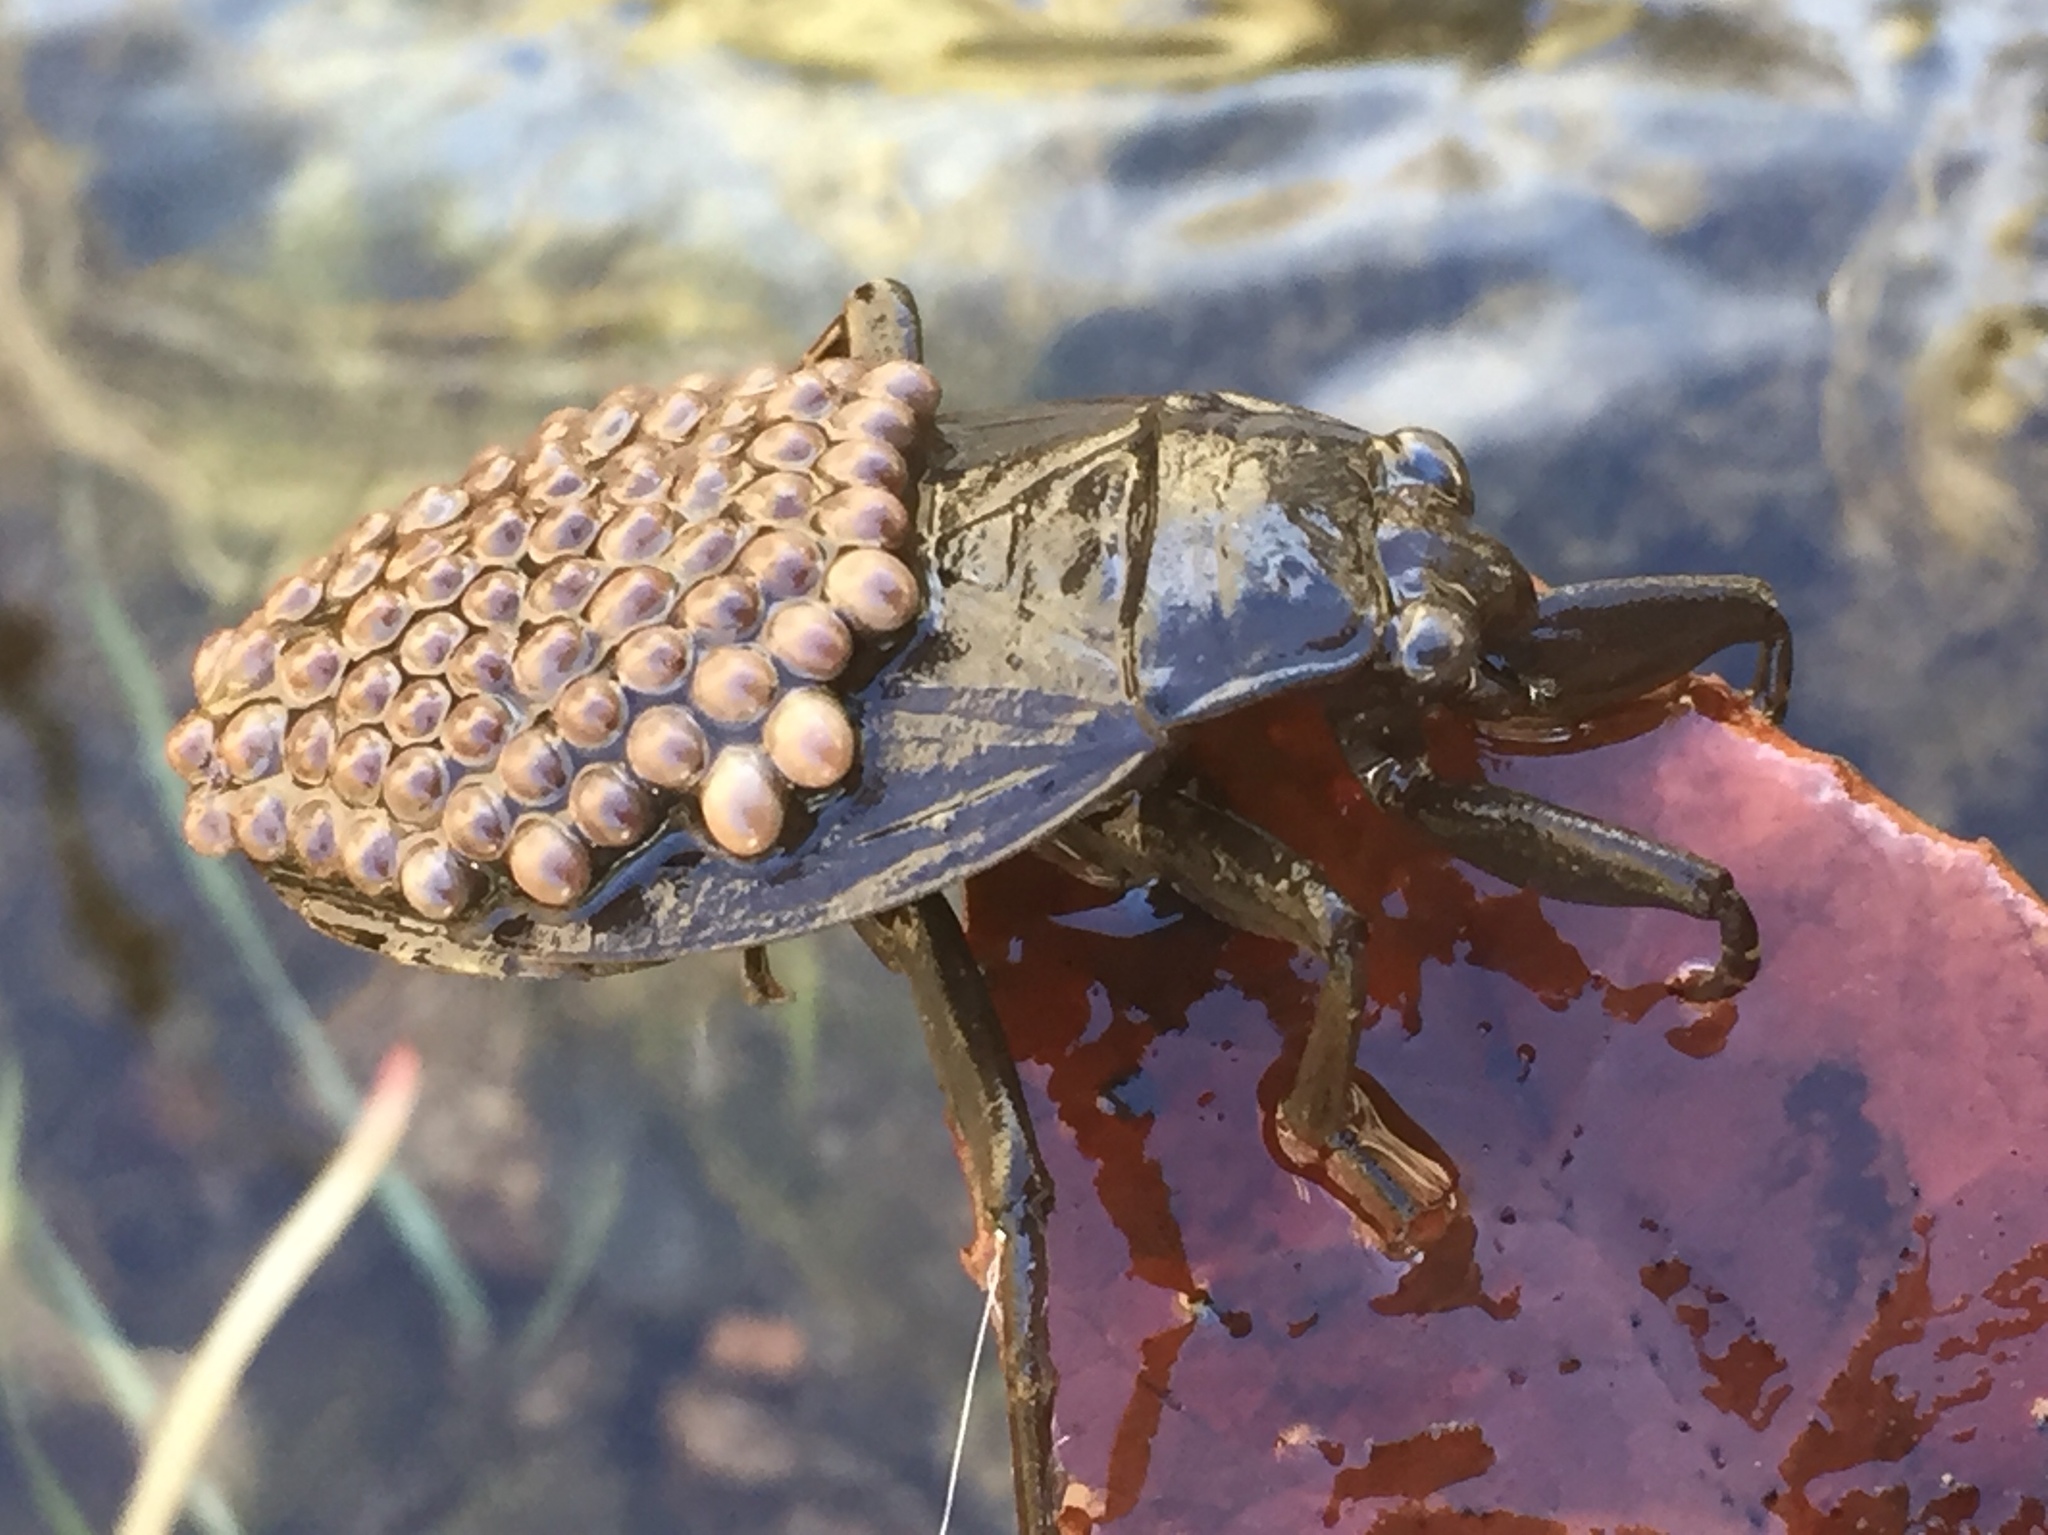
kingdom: Animalia
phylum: Arthropoda
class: Insecta
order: Hemiptera
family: Belostomatidae
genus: Abedus
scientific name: Abedus indentatus
